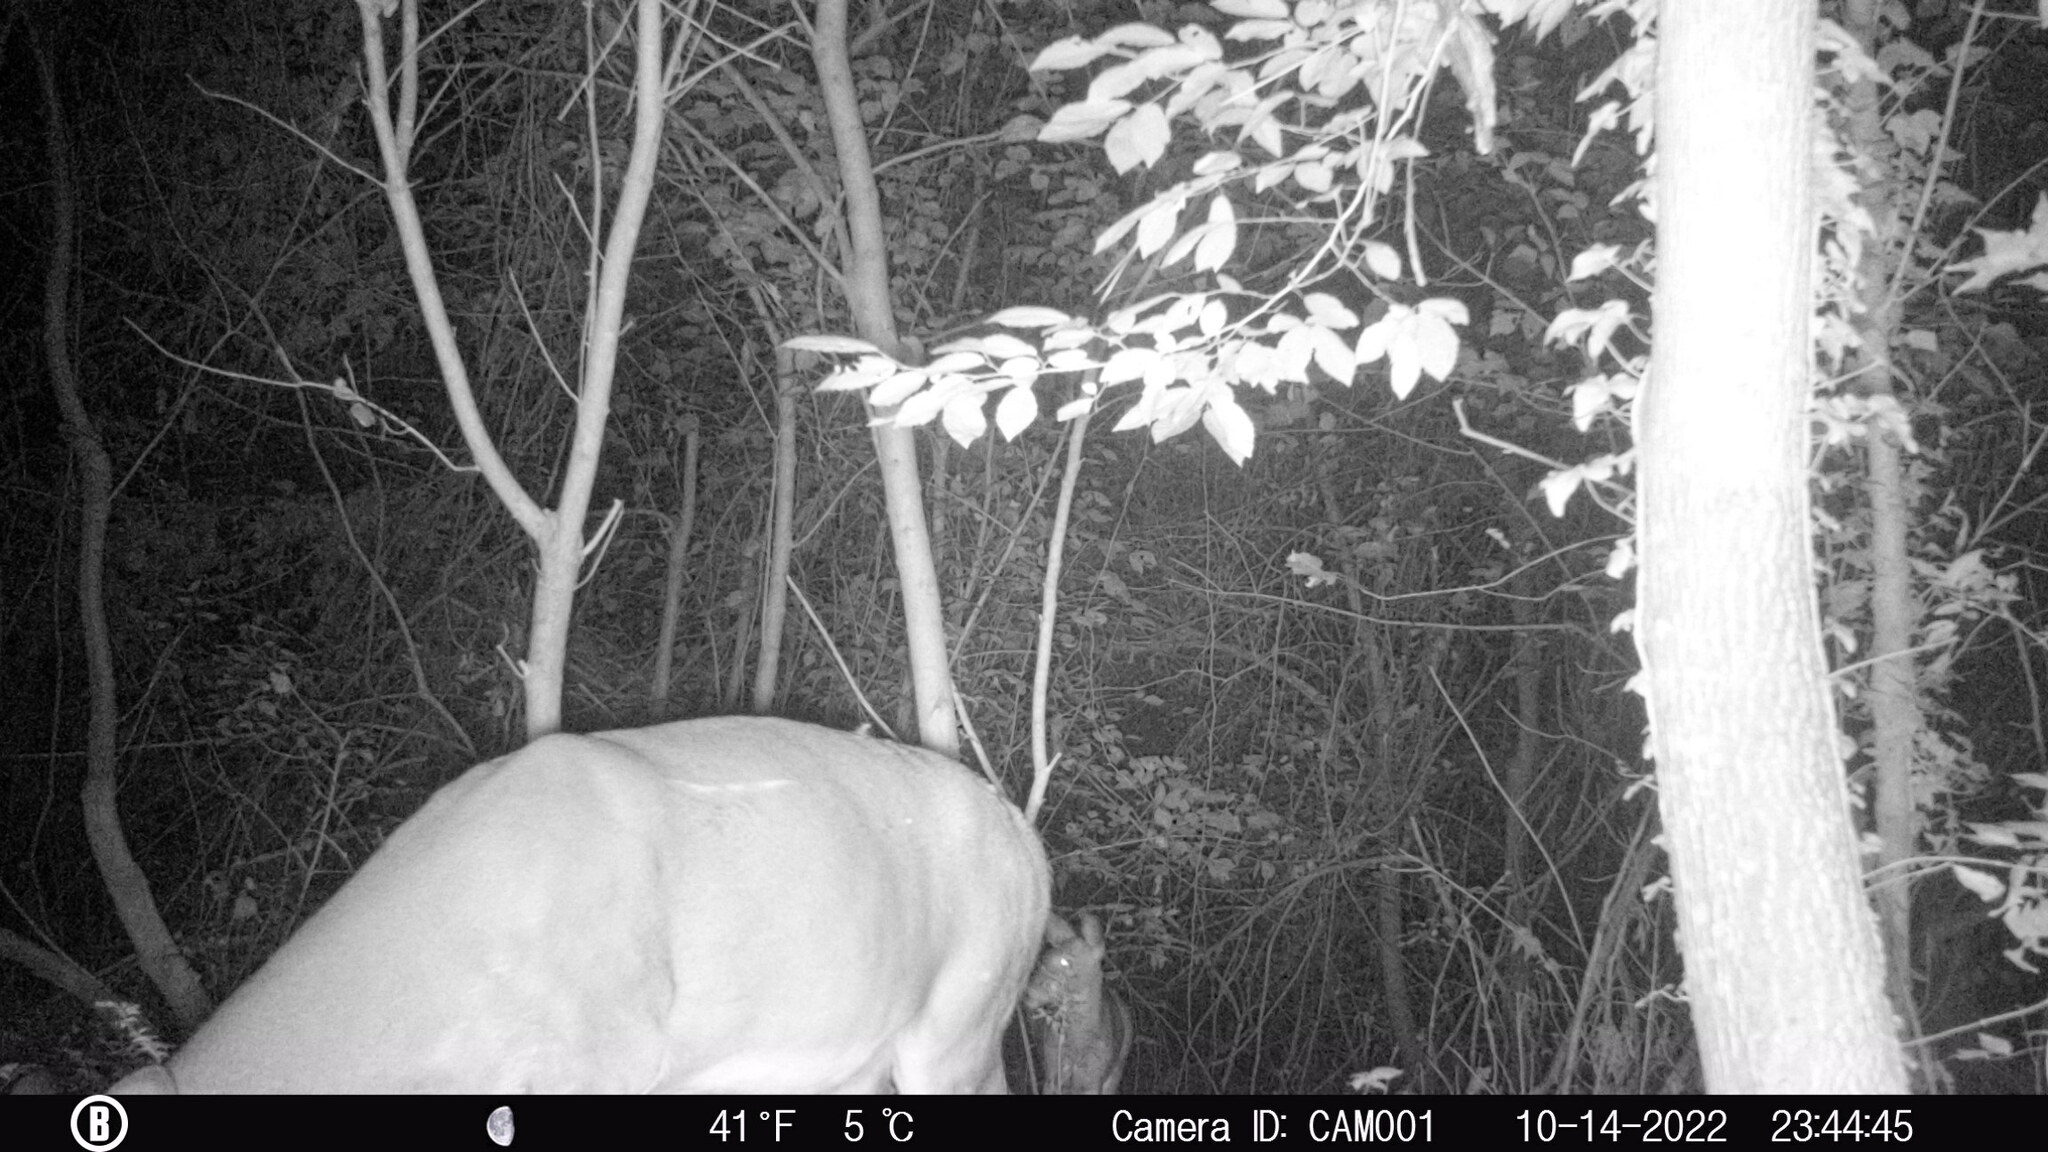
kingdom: Animalia
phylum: Chordata
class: Mammalia
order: Artiodactyla
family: Cervidae
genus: Odocoileus
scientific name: Odocoileus virginianus
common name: White-tailed deer
